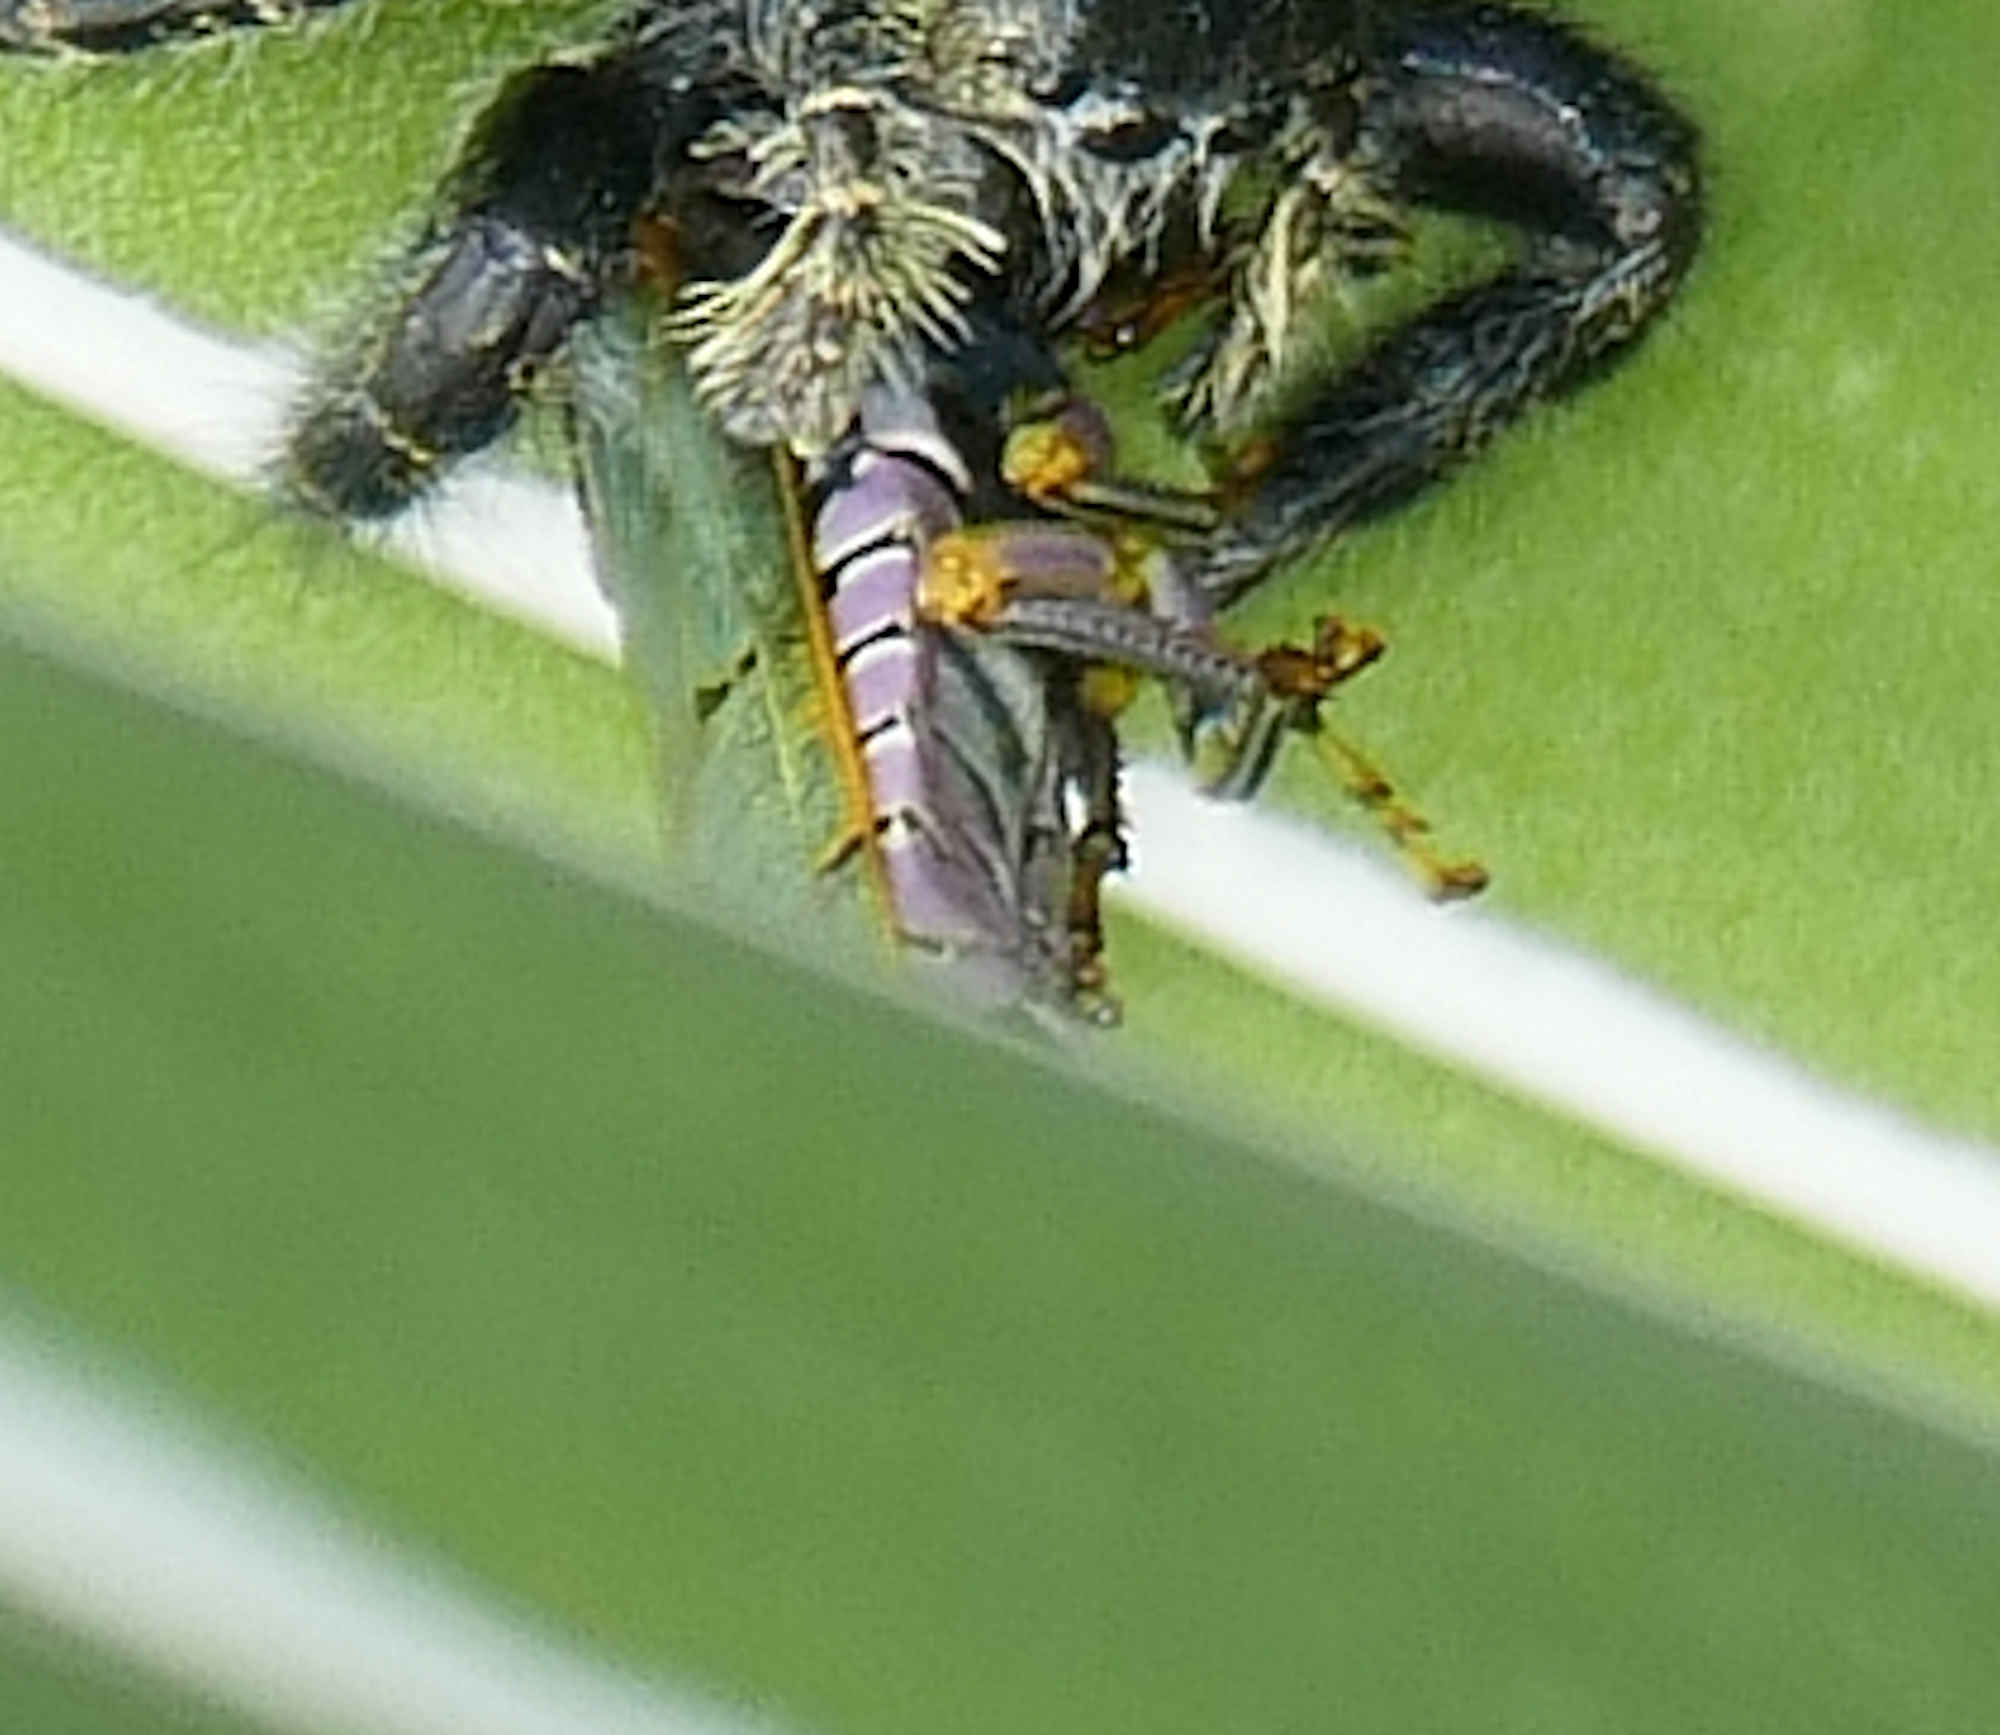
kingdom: Animalia
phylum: Arthropoda
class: Insecta
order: Hemiptera
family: Cicadellidae
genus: Oncometopia
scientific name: Oncometopia alpha
